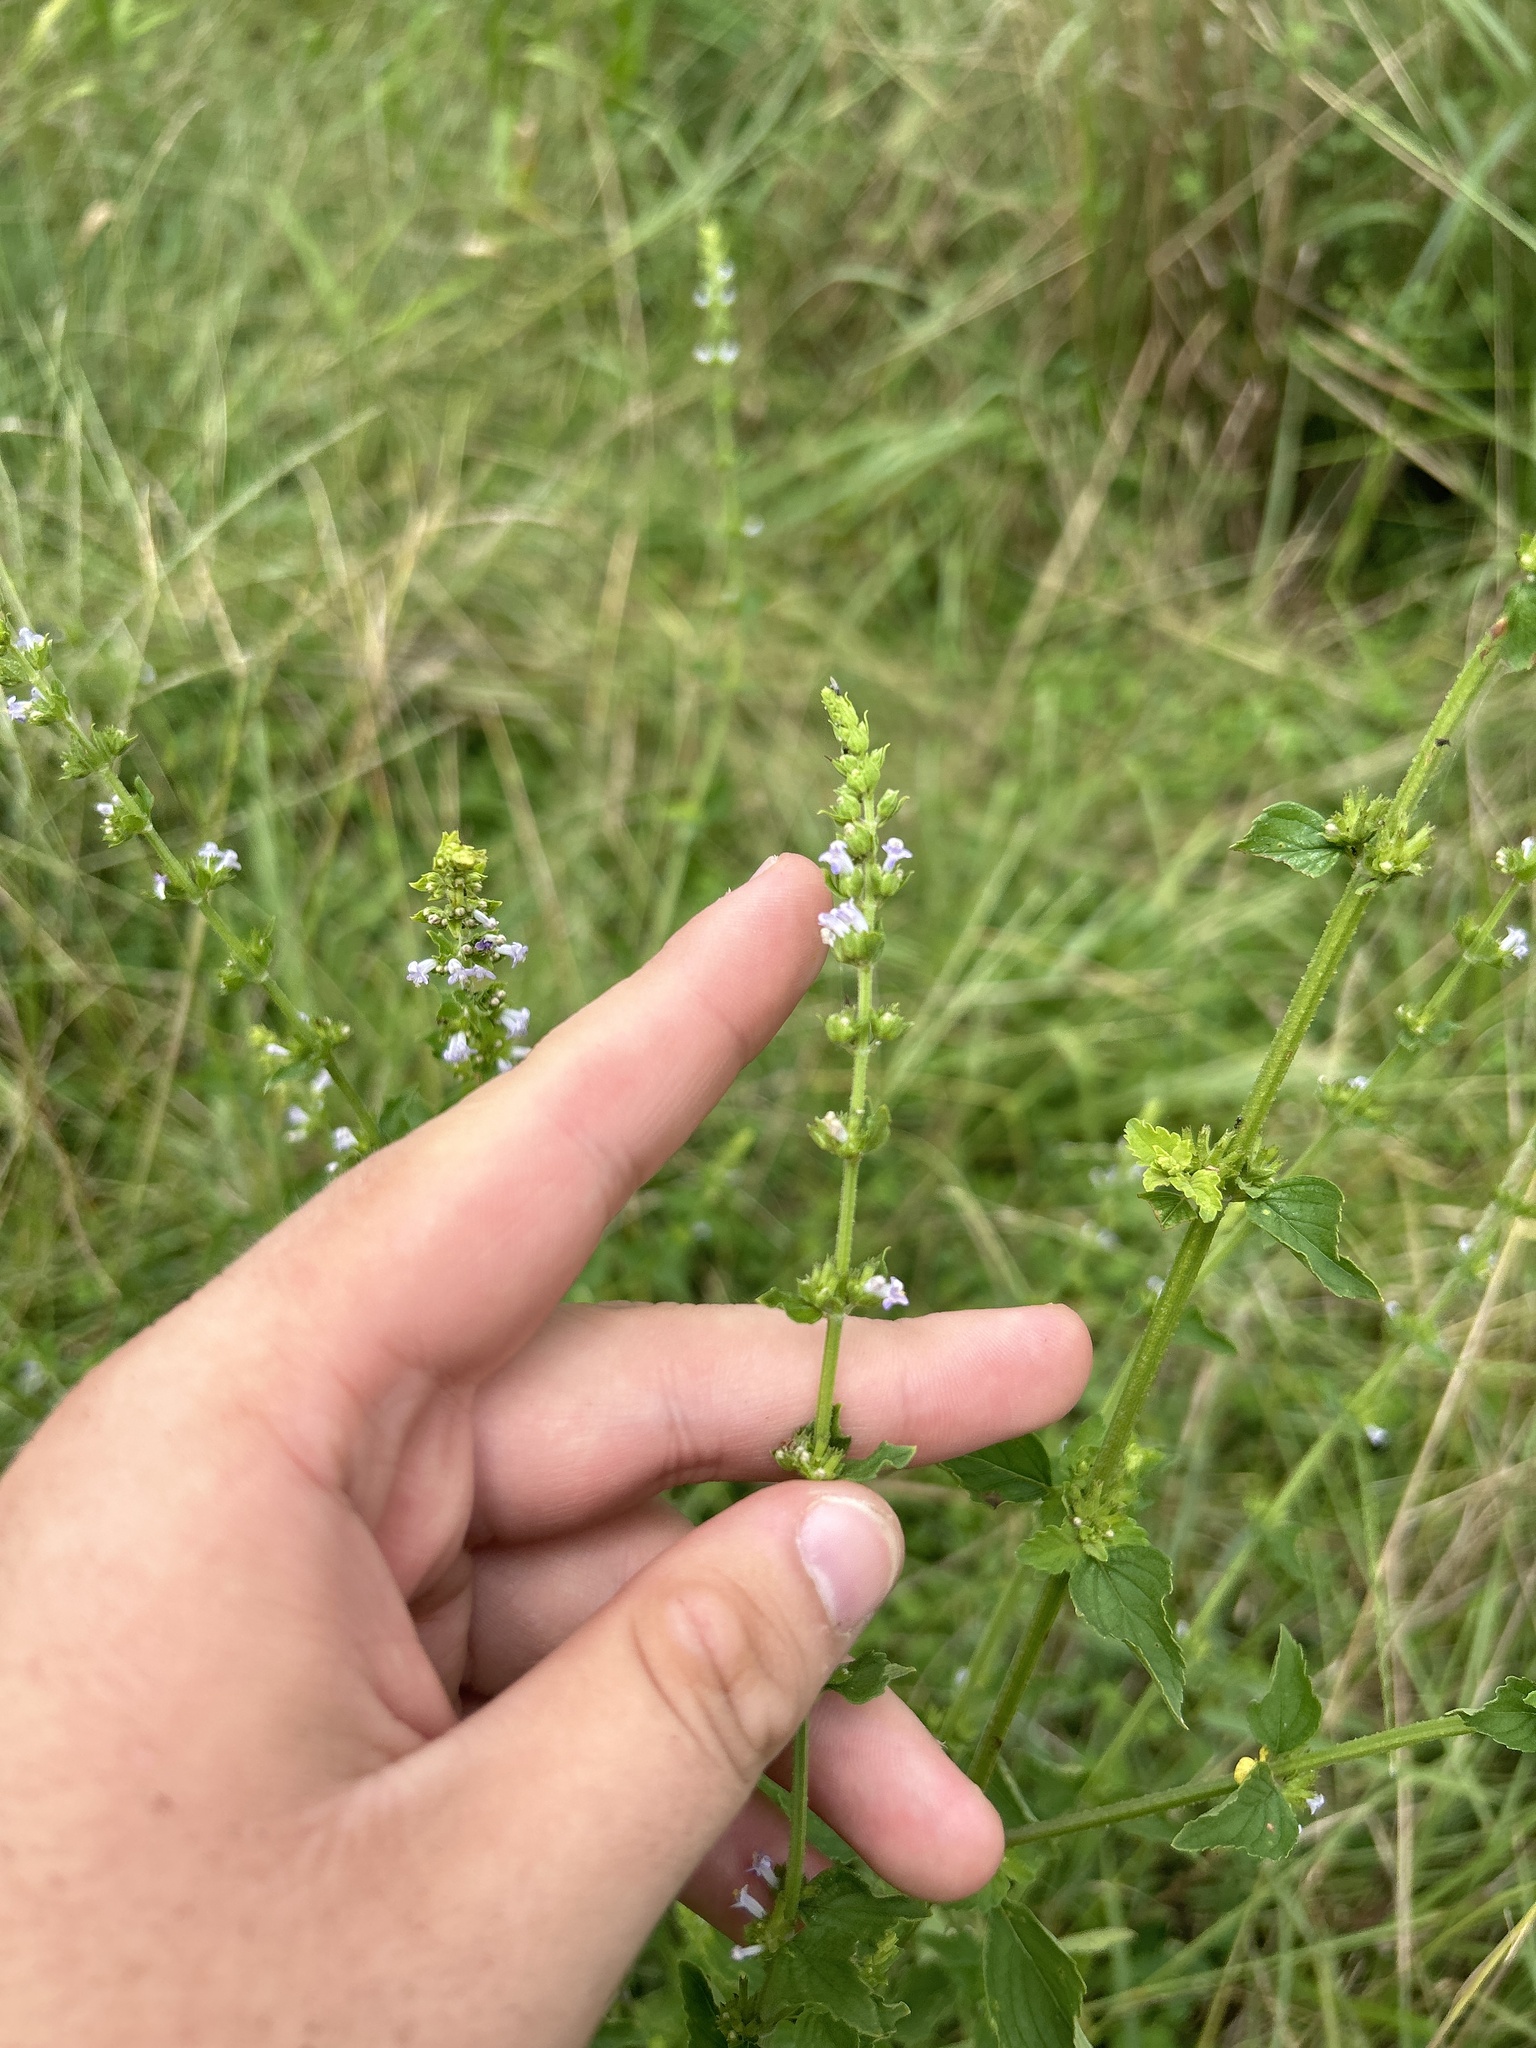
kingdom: Plantae
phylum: Tracheophyta
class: Magnoliopsida
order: Lamiales
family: Lamiaceae
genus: Cantinoa
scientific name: Cantinoa mutabilis
